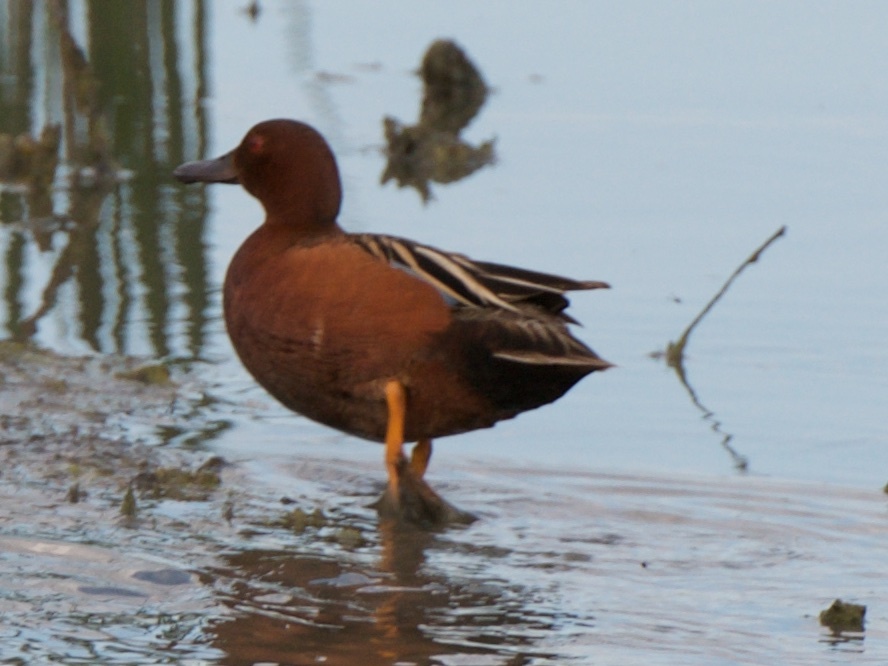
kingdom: Animalia
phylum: Chordata
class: Aves
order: Anseriformes
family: Anatidae
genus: Spatula
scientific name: Spatula cyanoptera
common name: Cinnamon teal
